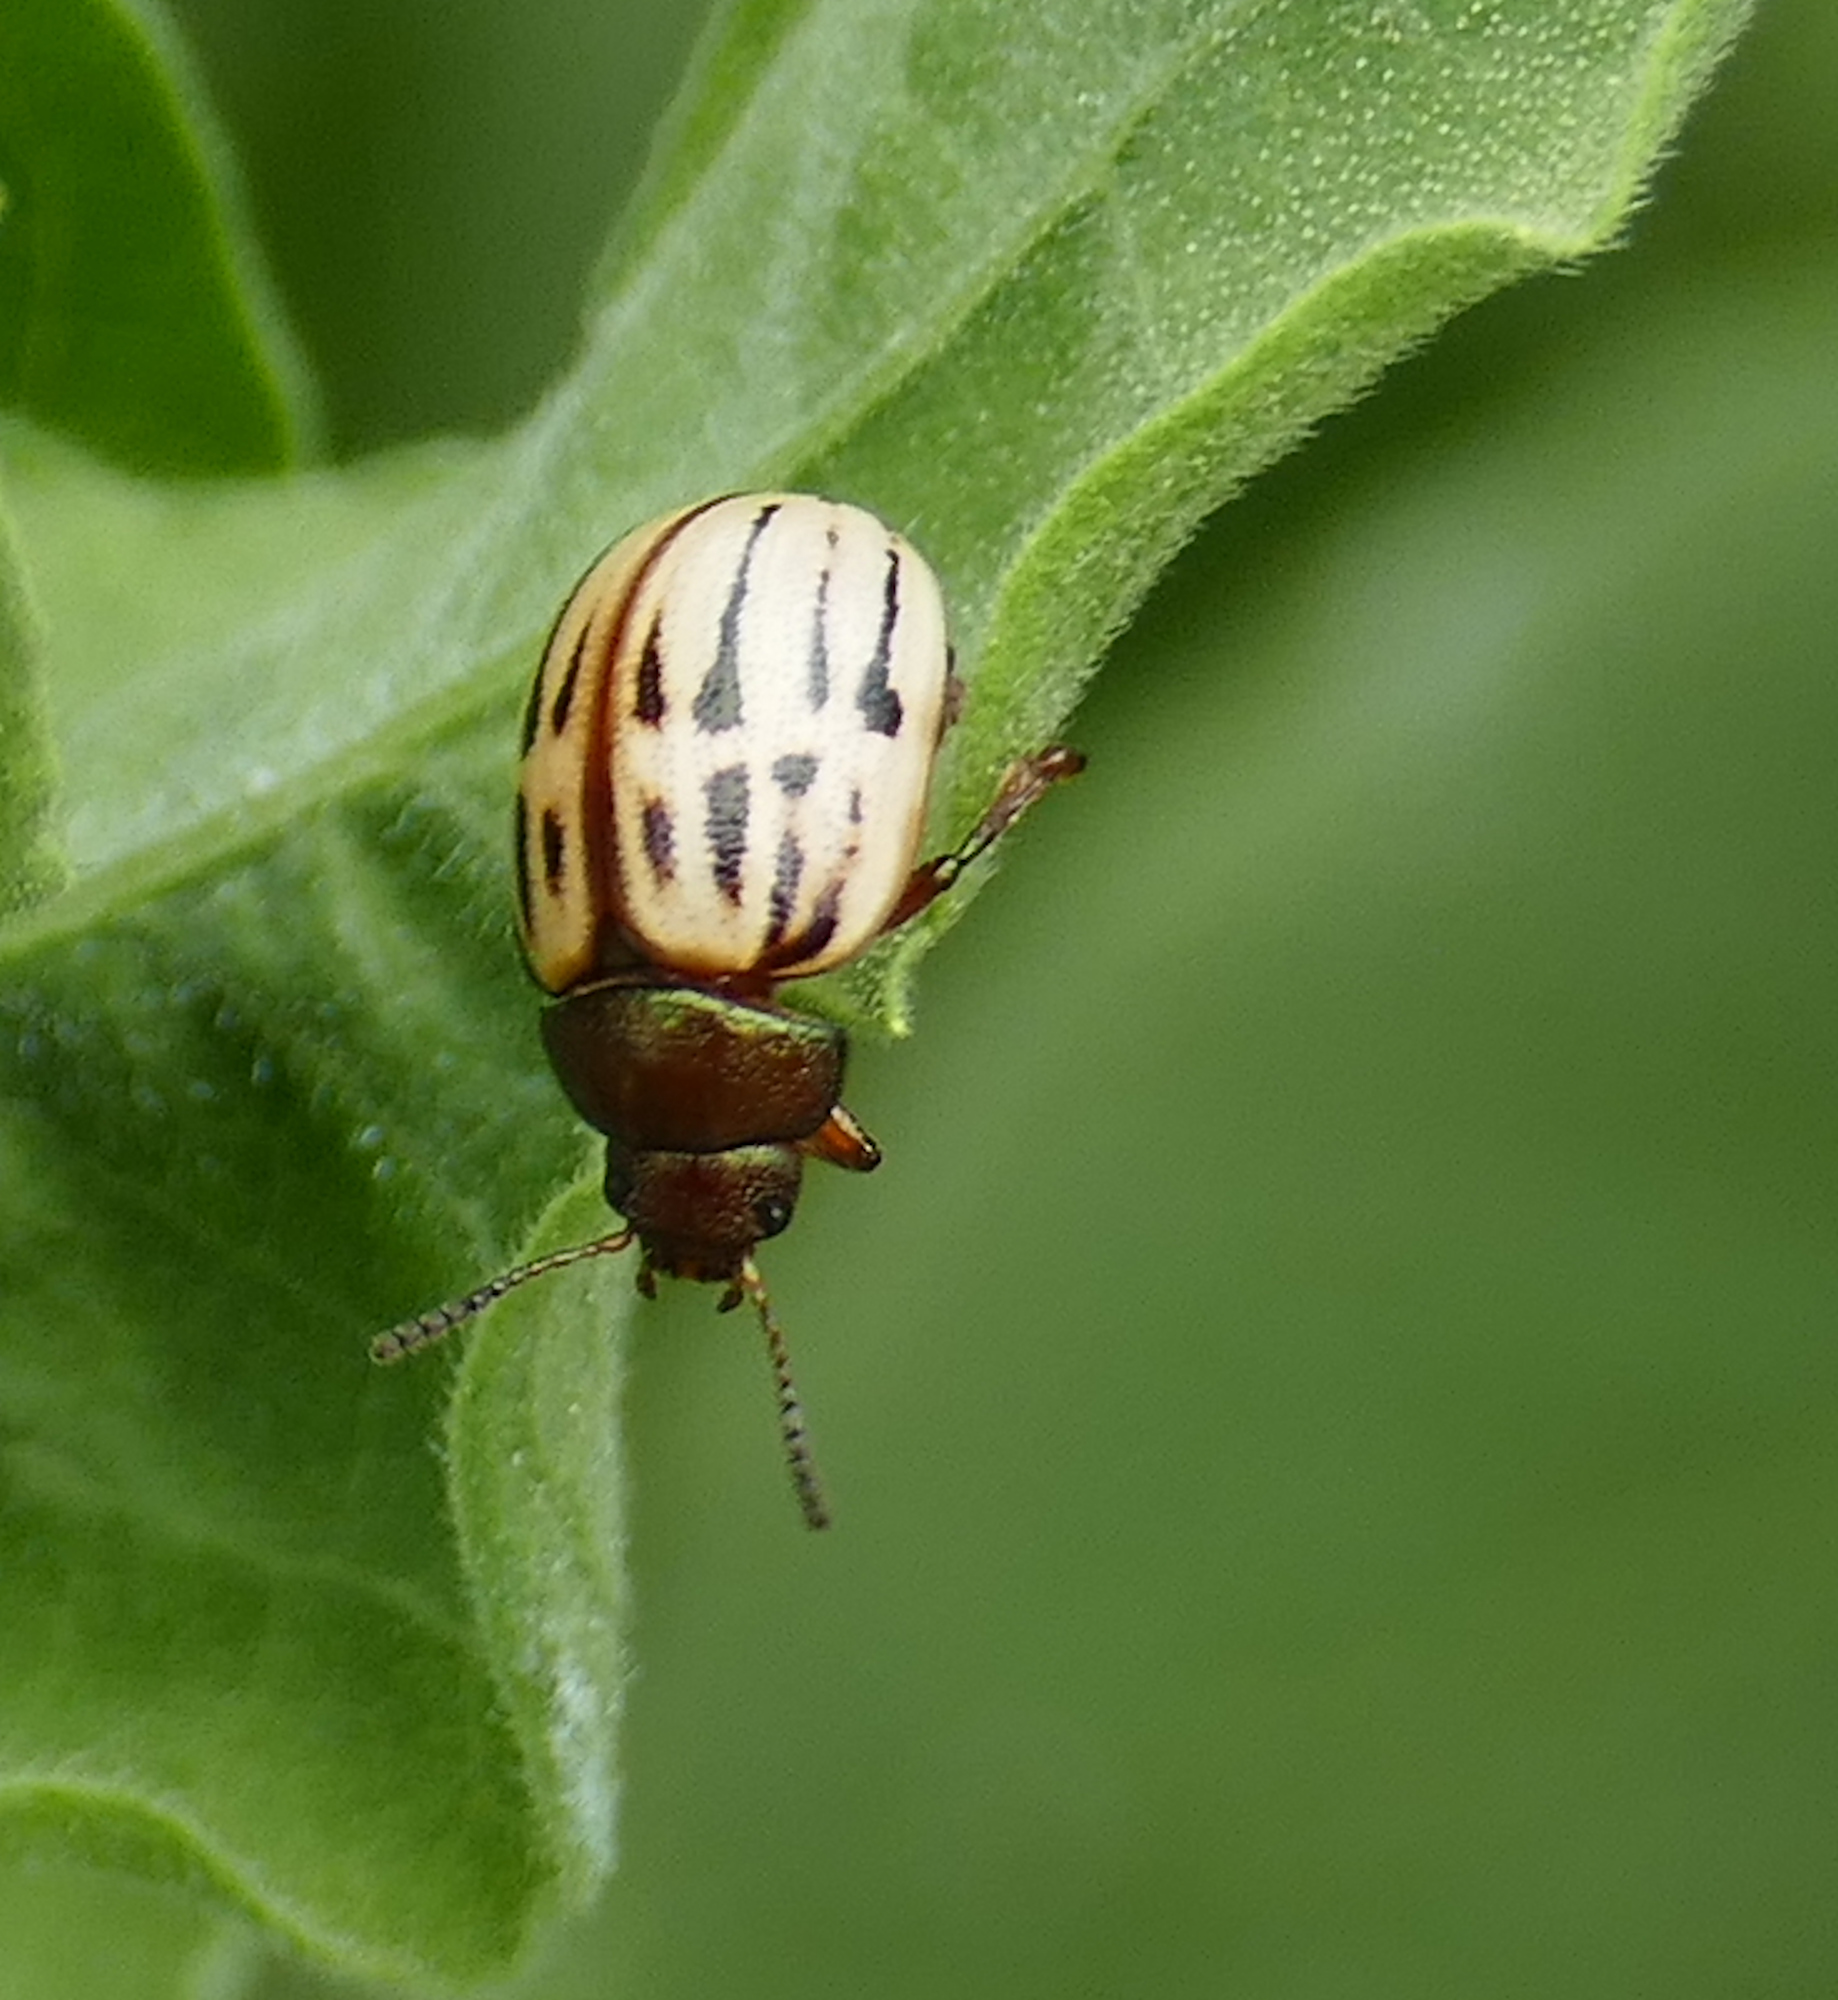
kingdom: Animalia
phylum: Arthropoda
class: Insecta
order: Coleoptera
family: Chrysomelidae
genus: Leptinotarsa
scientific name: Leptinotarsa lineolata
